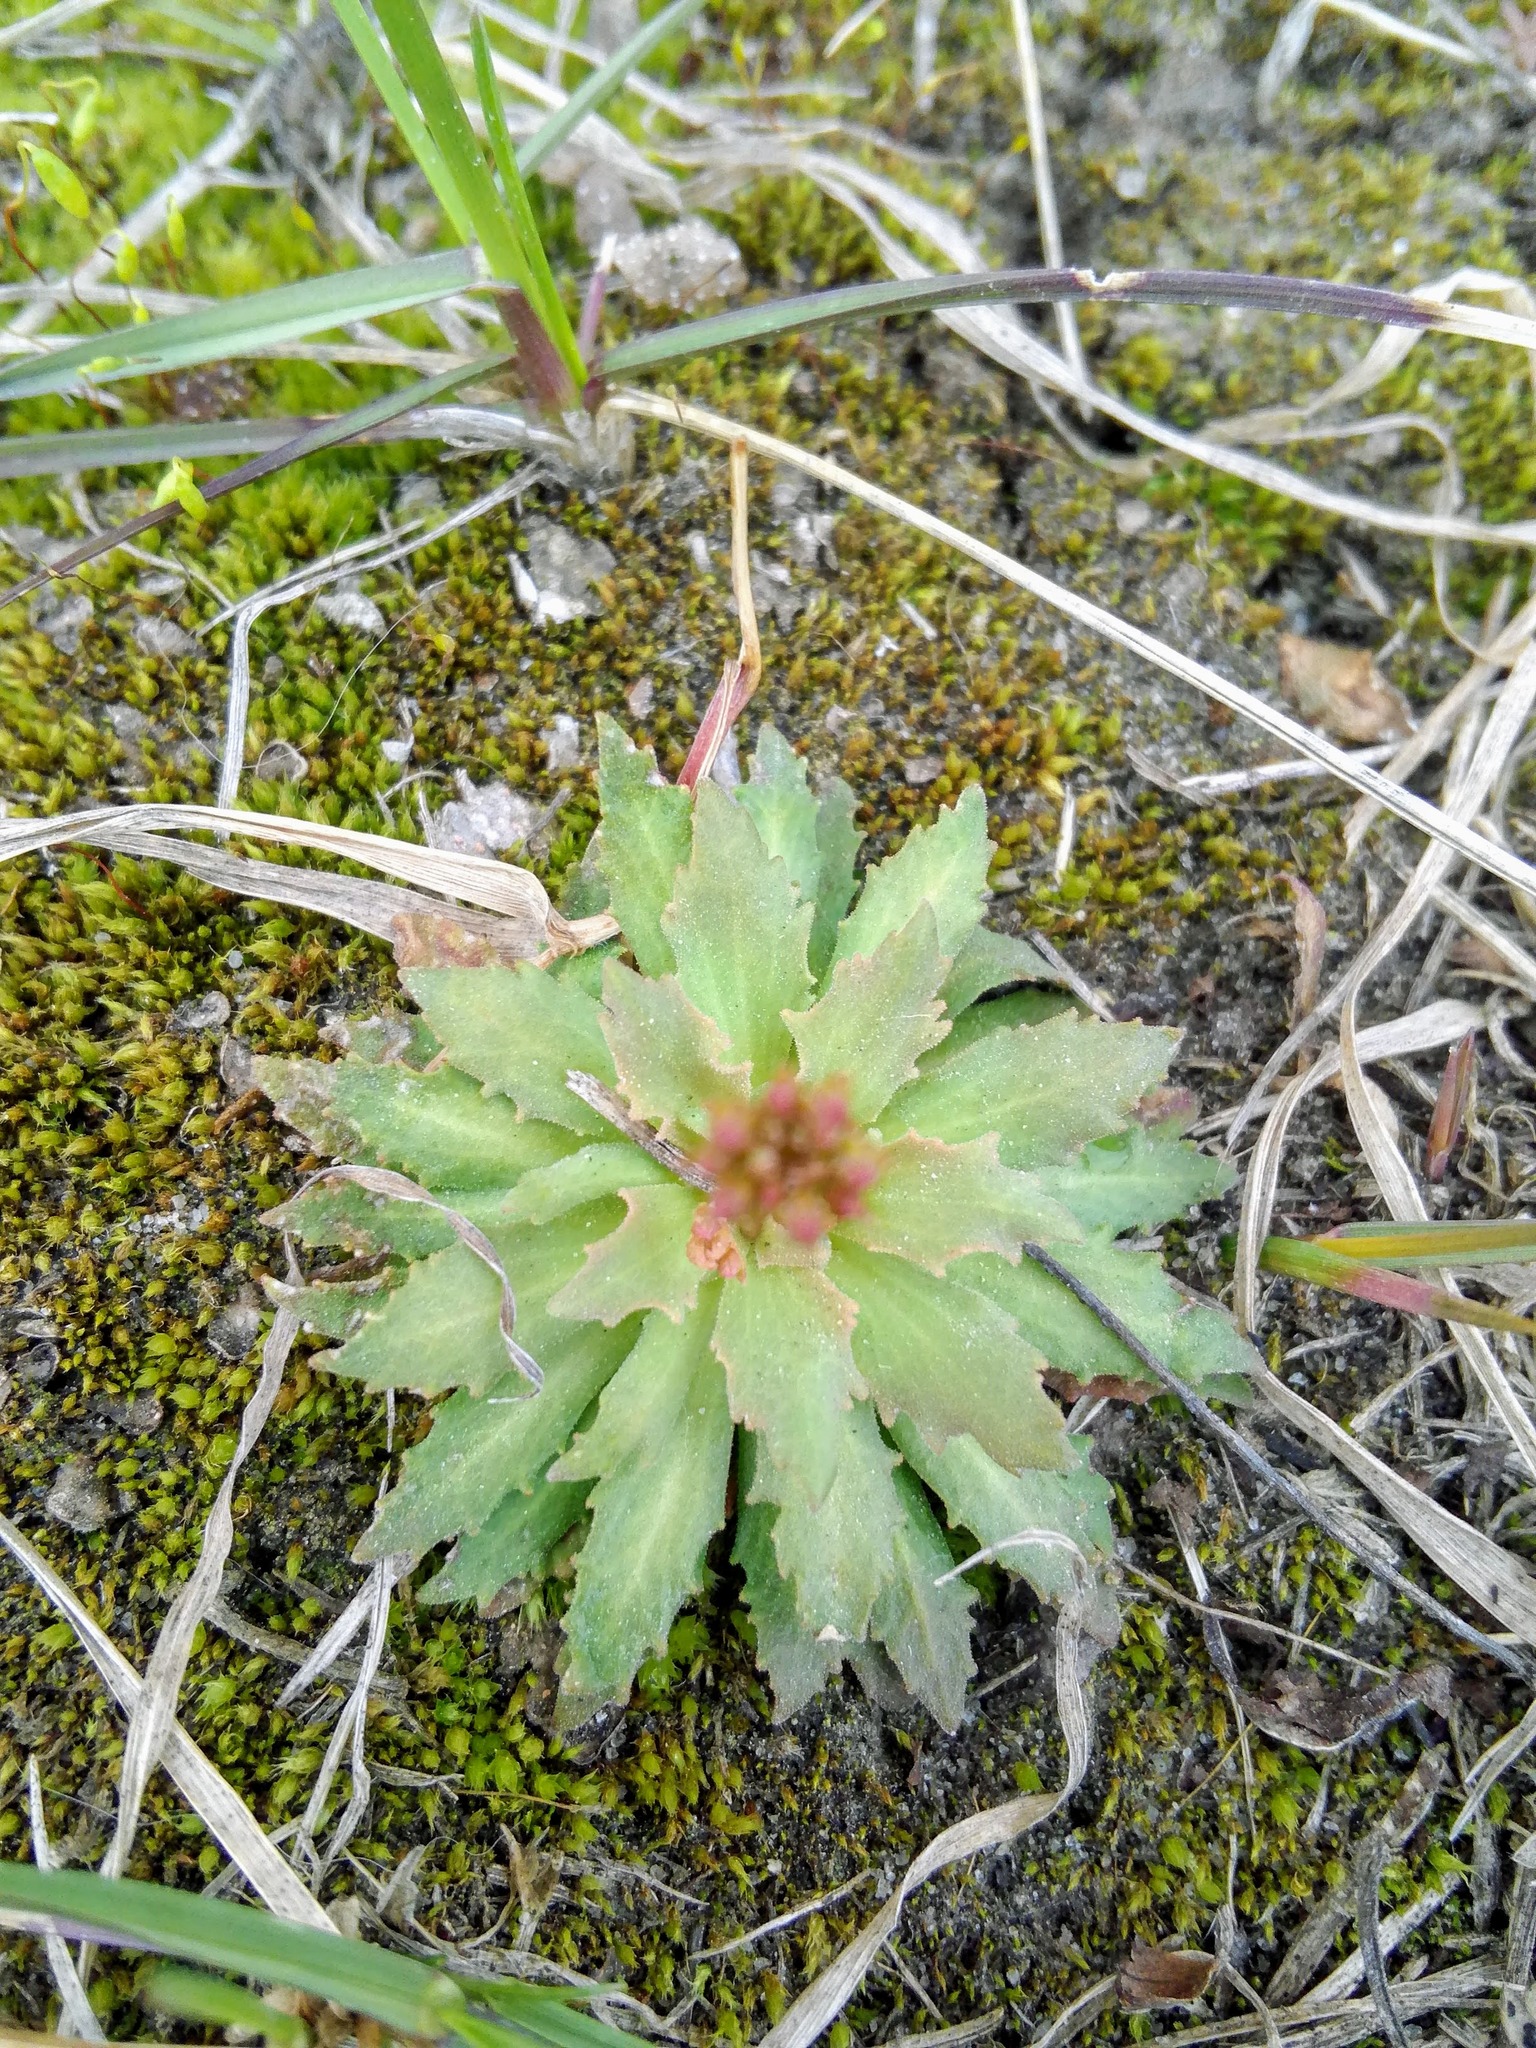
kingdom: Plantae
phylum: Tracheophyta
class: Magnoliopsida
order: Ericales
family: Primulaceae
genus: Androsace
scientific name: Androsace septentrionalis
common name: Hairy northern fairy-candelabra
